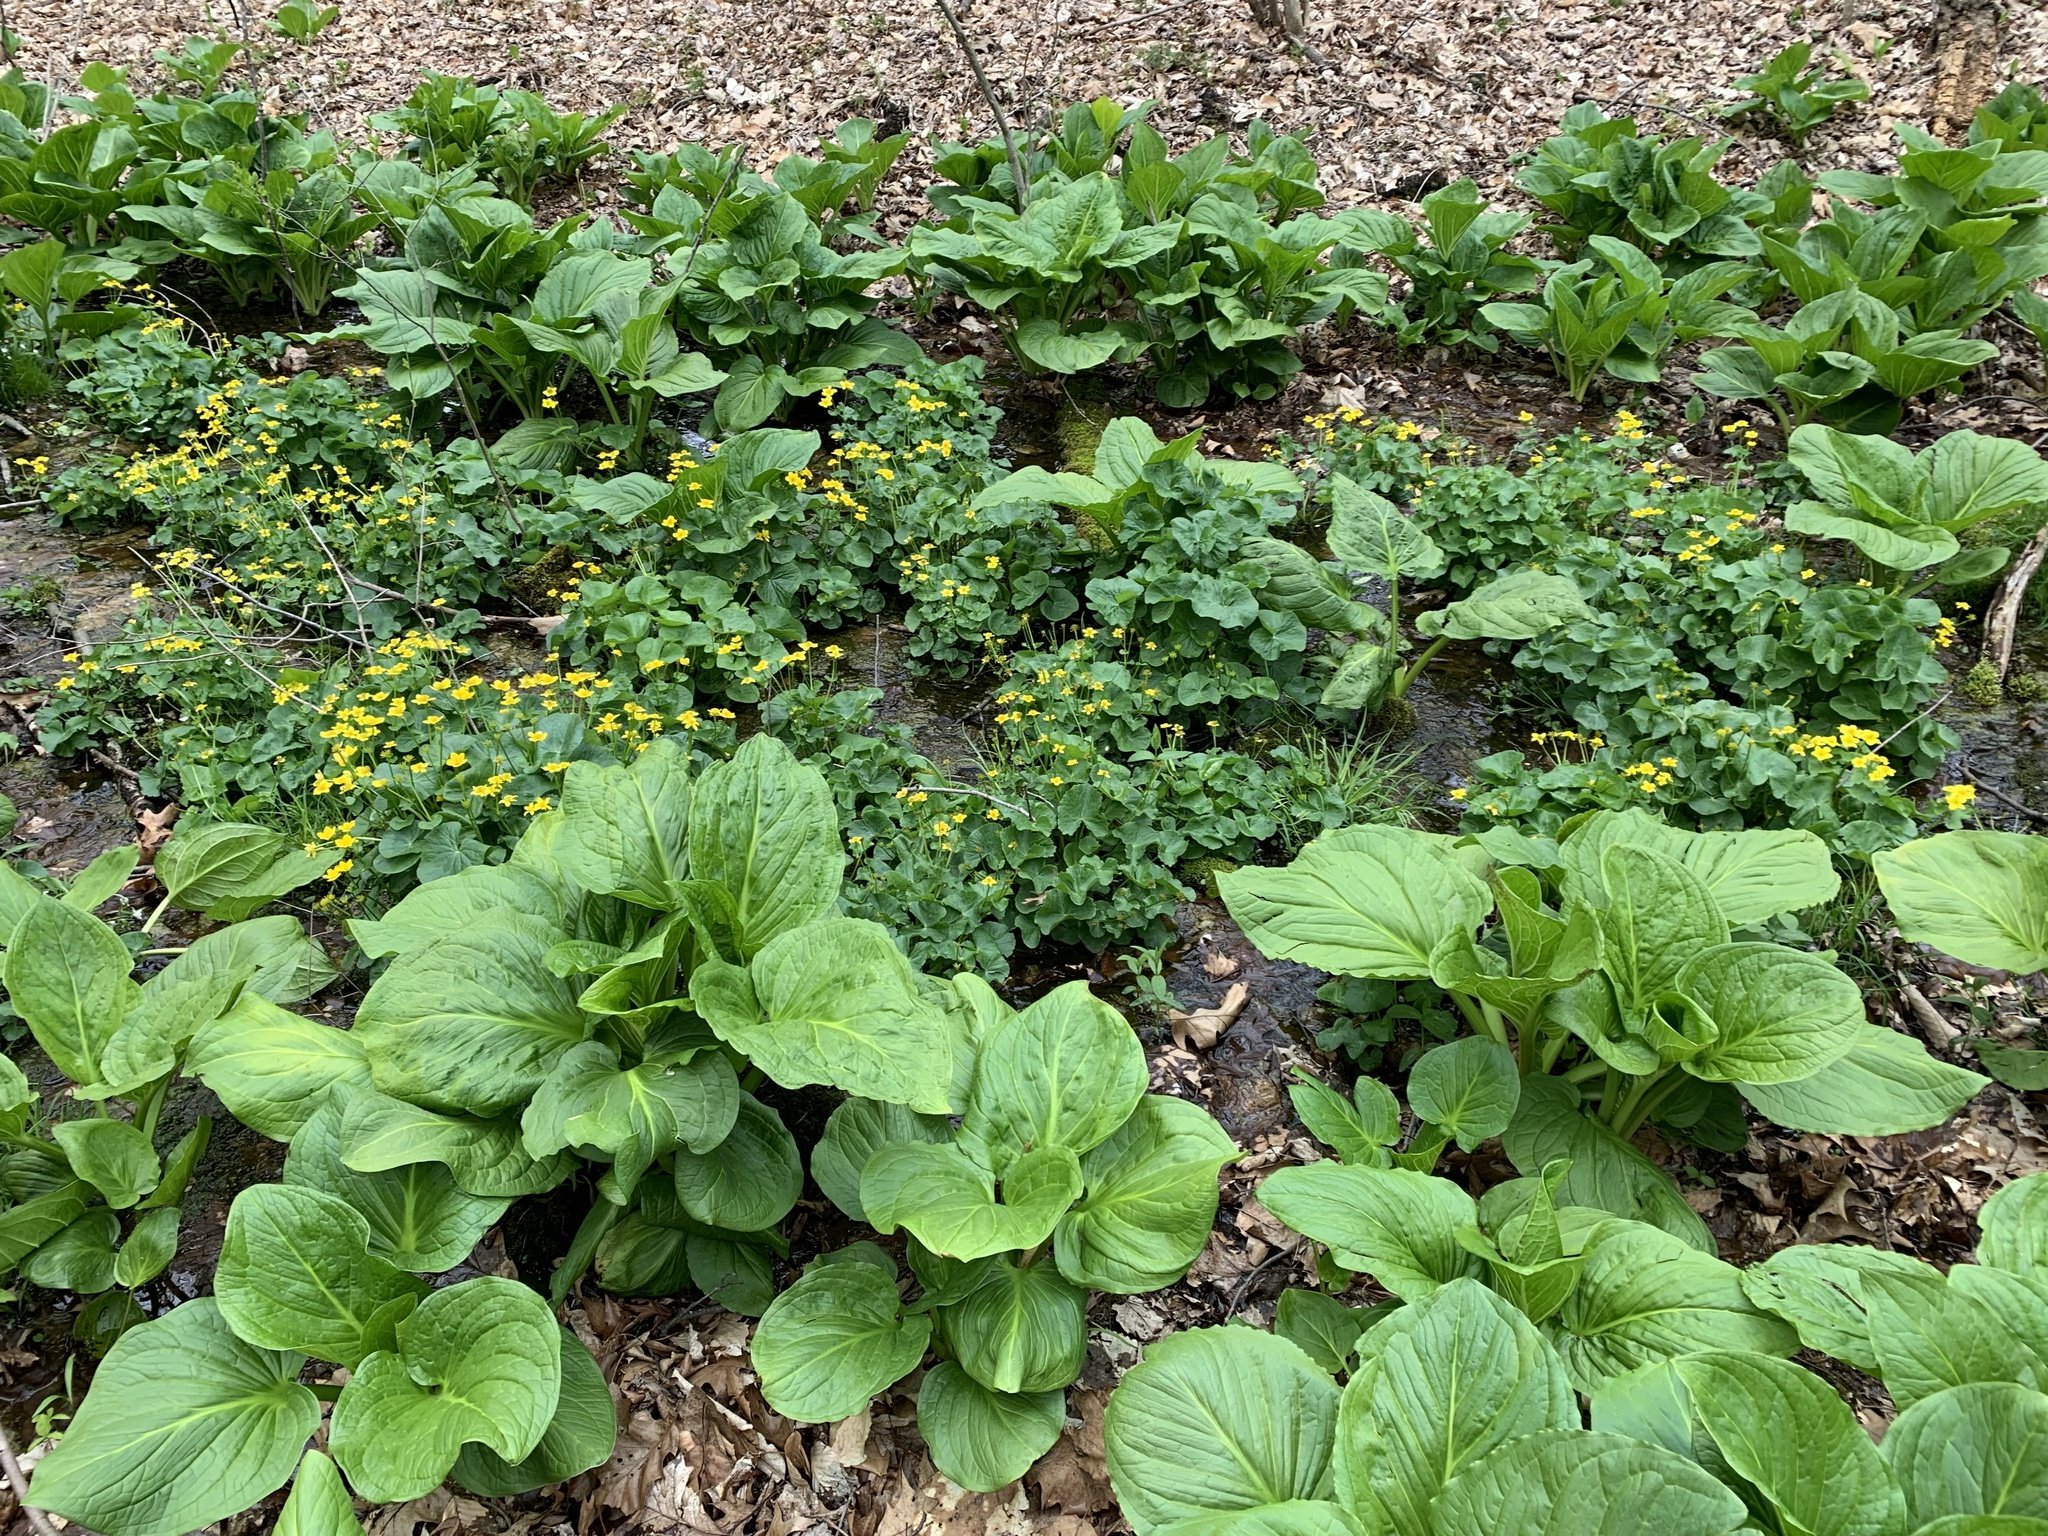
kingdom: Plantae
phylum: Tracheophyta
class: Magnoliopsida
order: Ranunculales
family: Ranunculaceae
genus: Caltha
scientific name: Caltha palustris
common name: Marsh marigold
